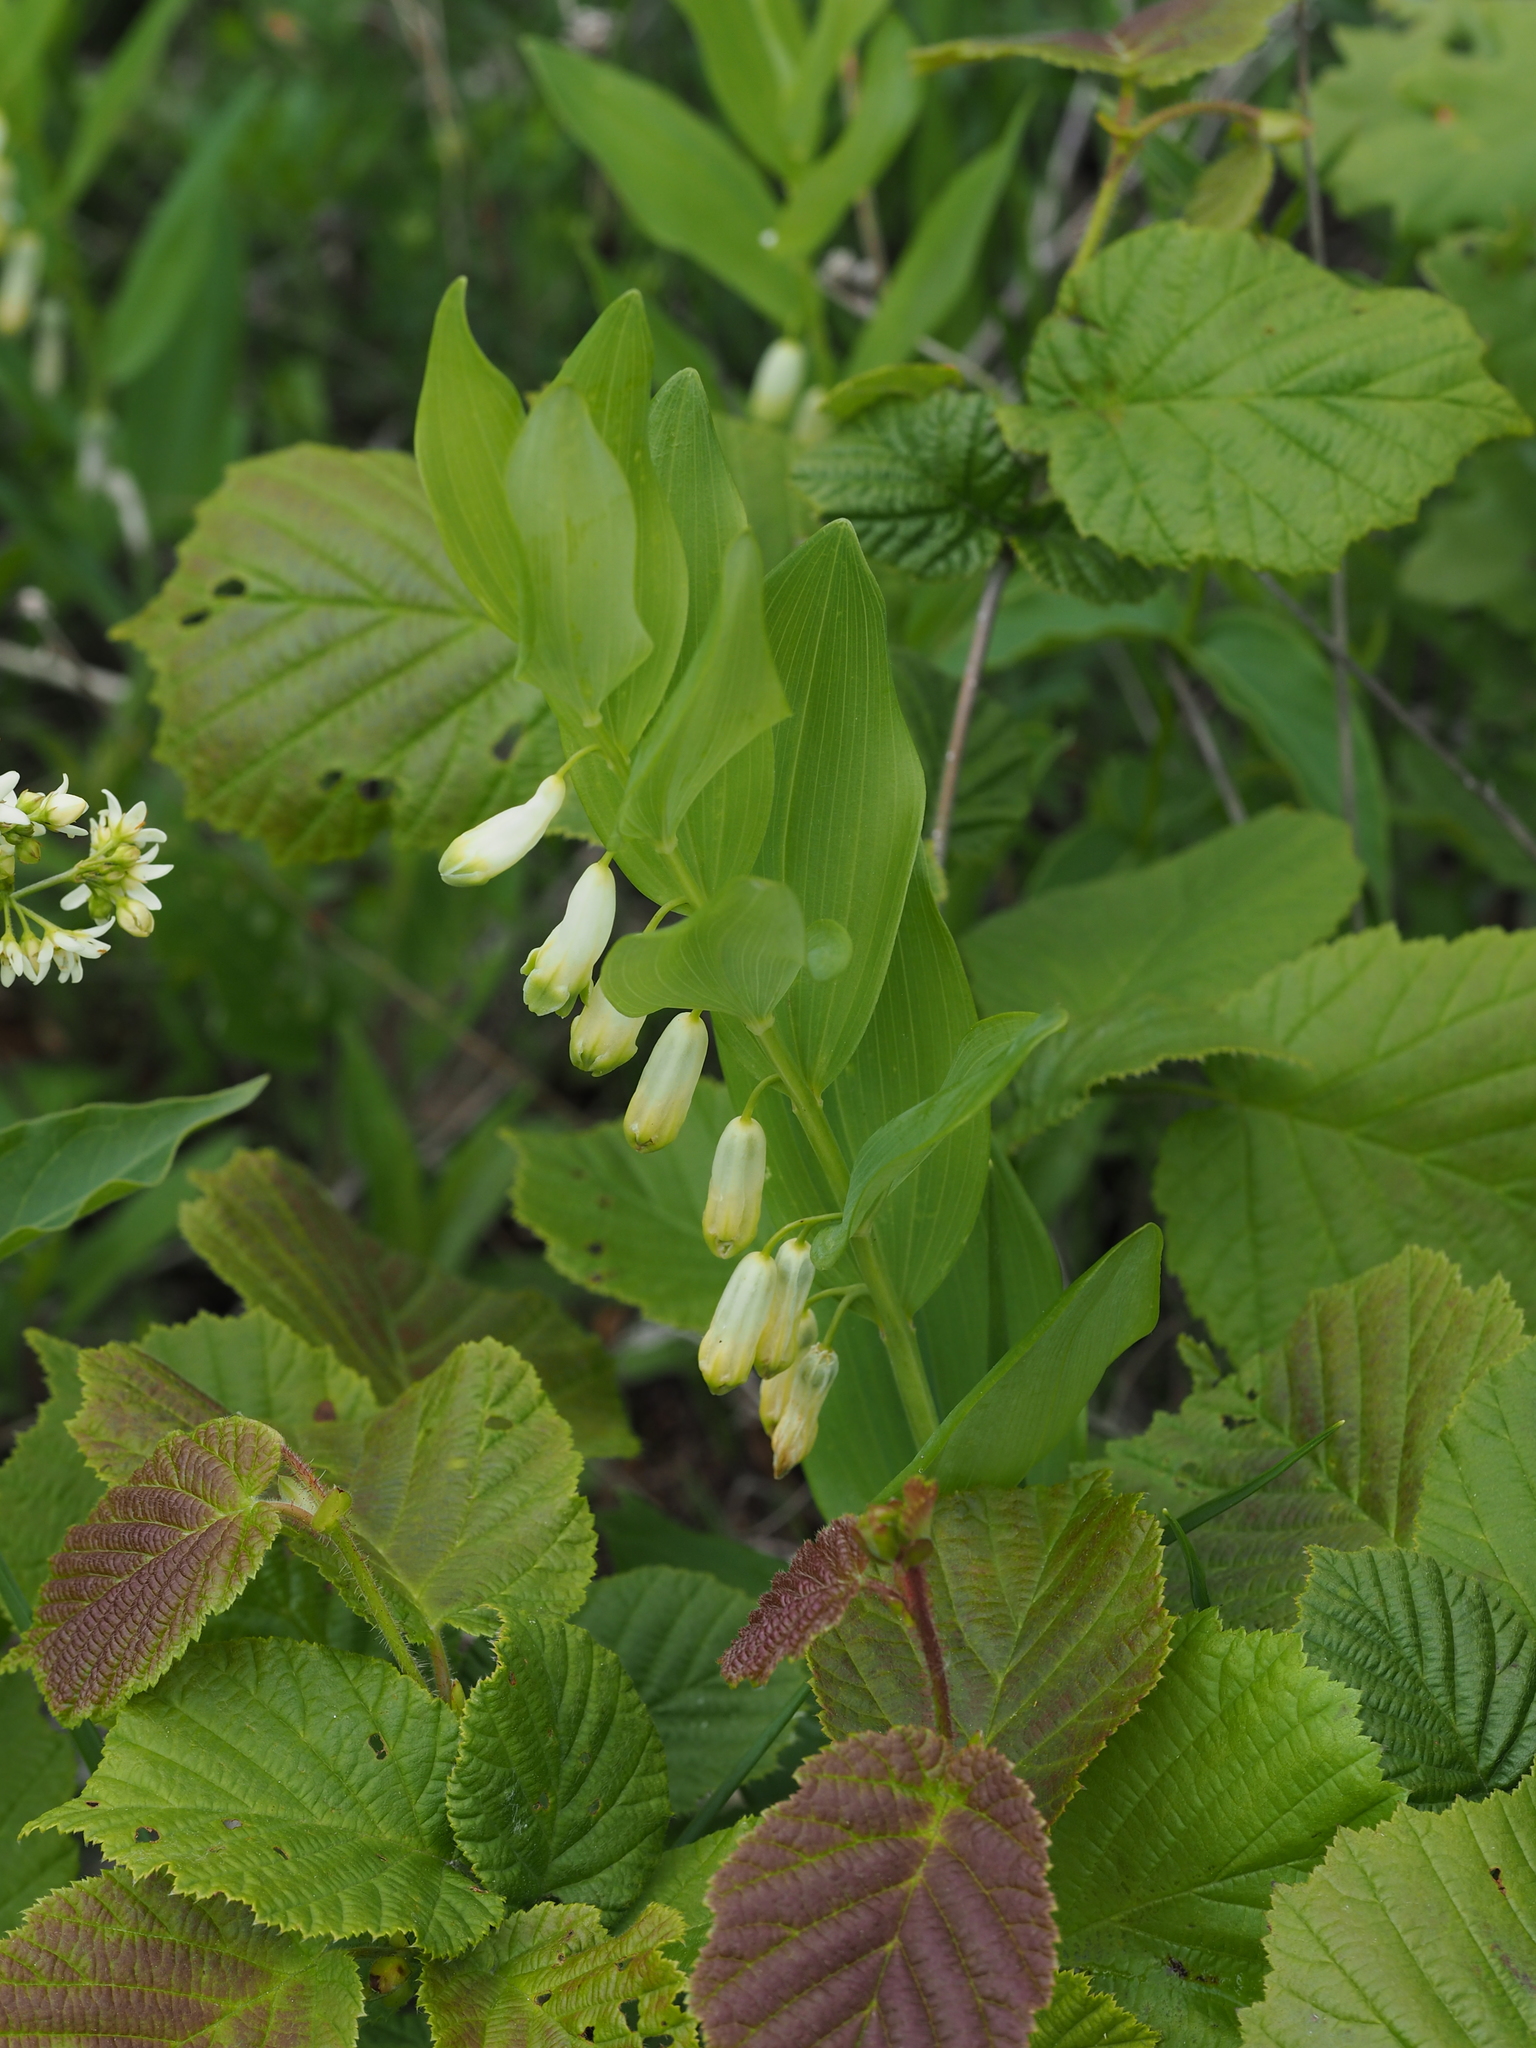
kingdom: Plantae
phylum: Tracheophyta
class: Liliopsida
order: Asparagales
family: Asparagaceae
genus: Polygonatum
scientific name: Polygonatum odoratum
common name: Angular solomon's-seal
